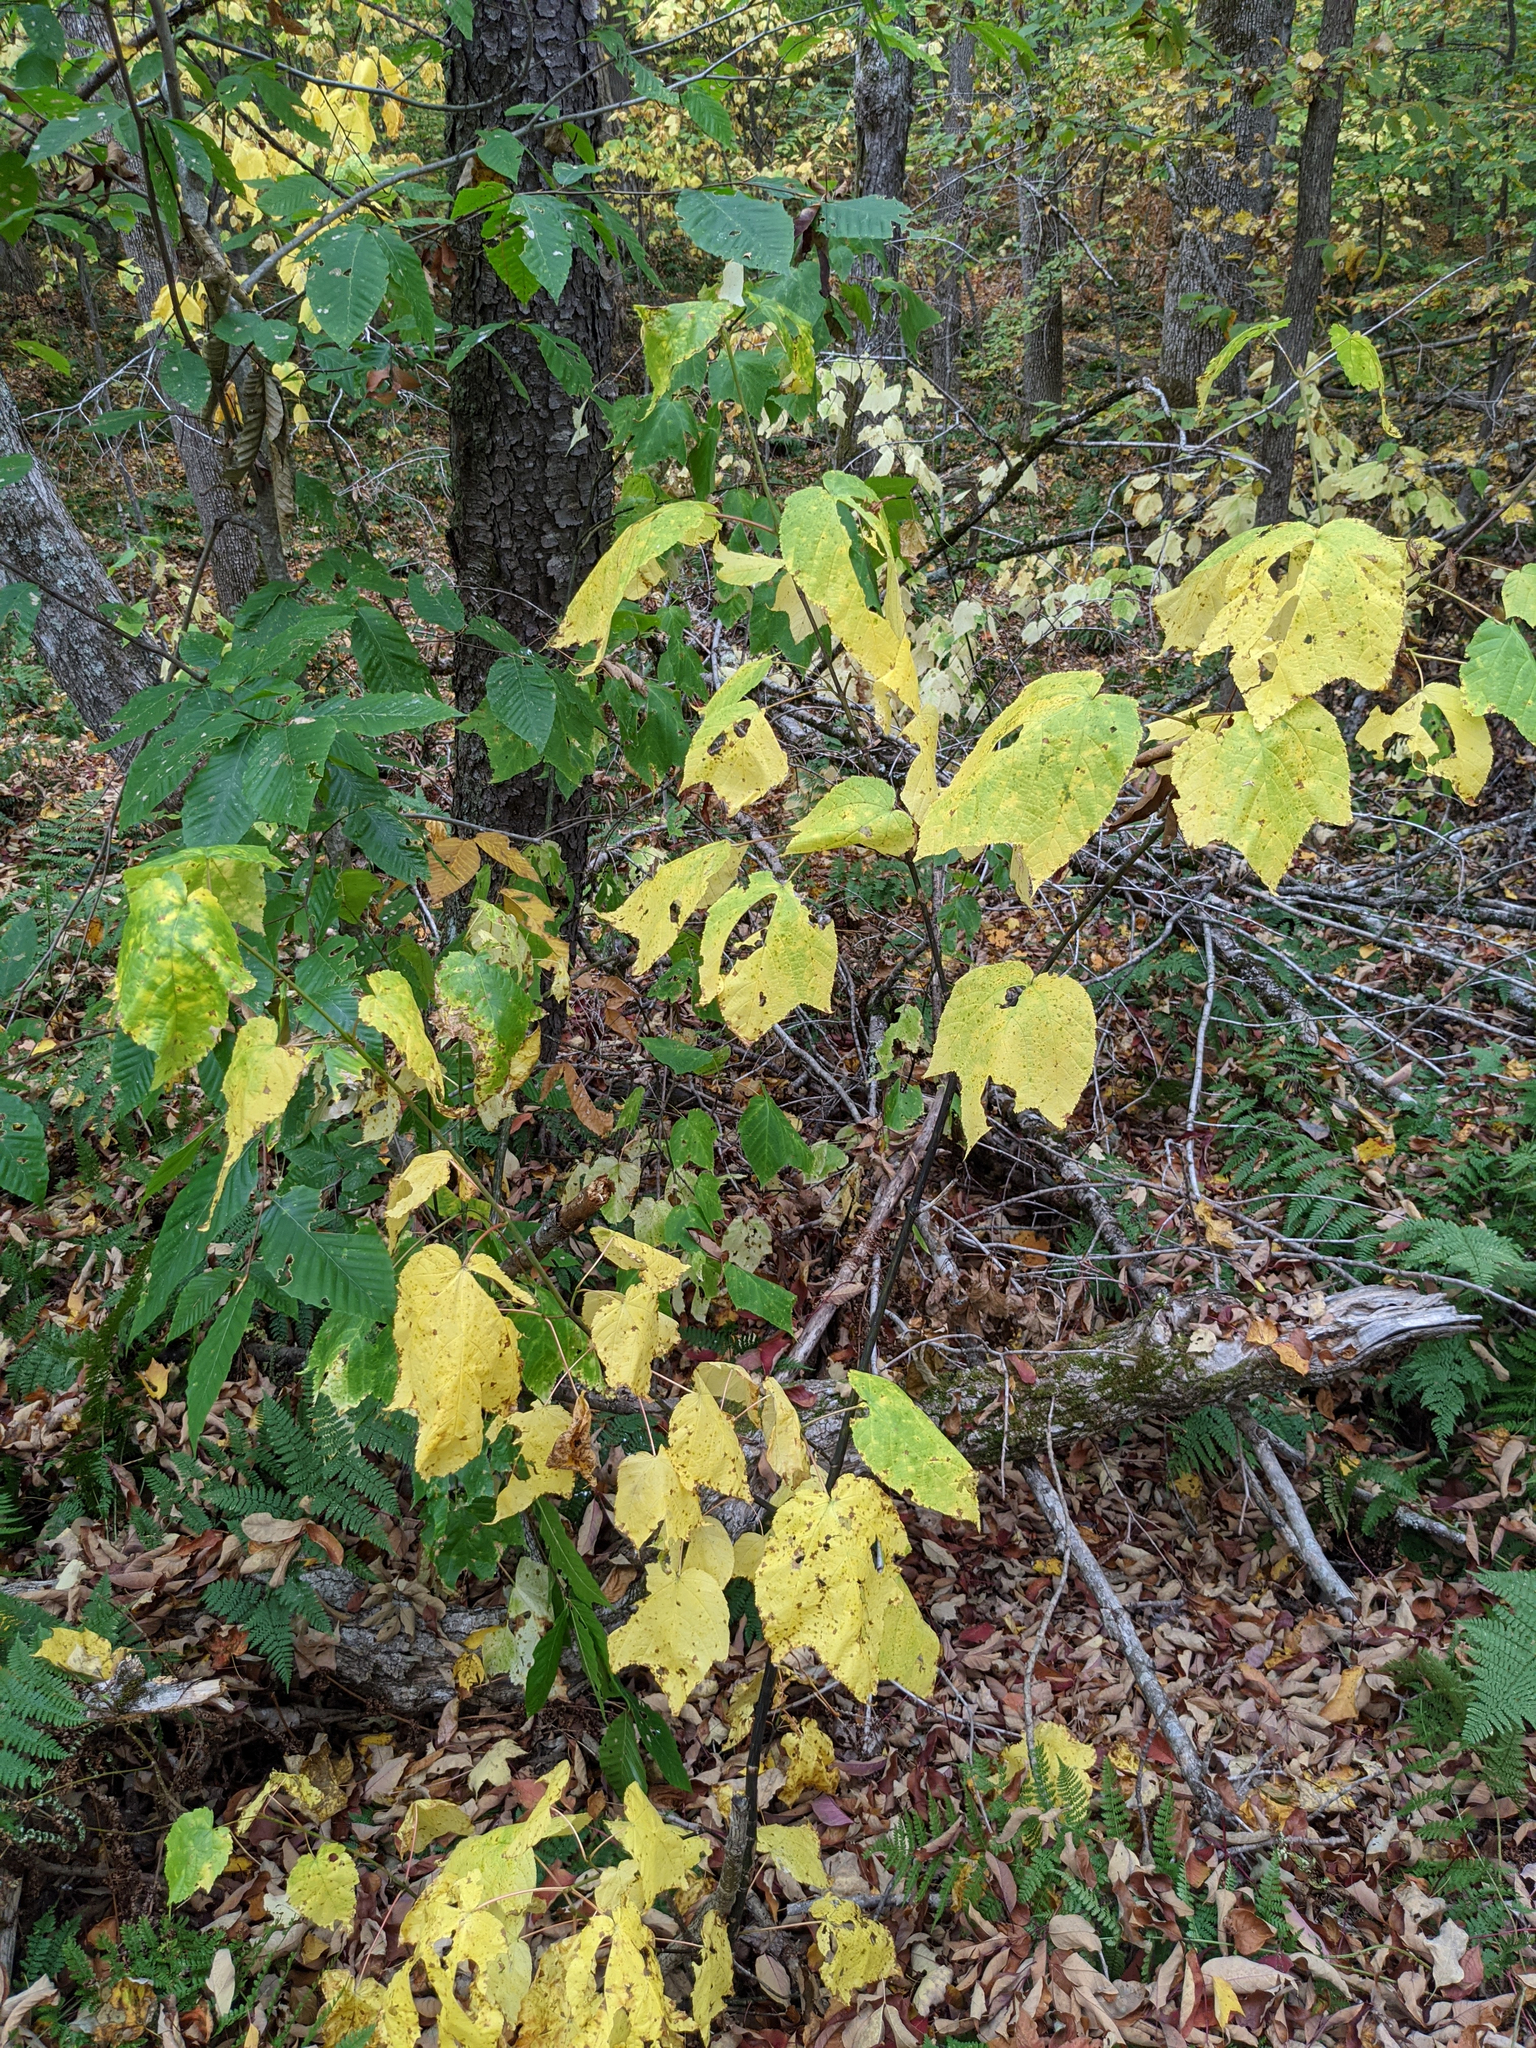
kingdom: Plantae
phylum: Tracheophyta
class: Magnoliopsida
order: Sapindales
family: Sapindaceae
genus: Acer
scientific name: Acer pensylvanicum
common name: Moosewood
